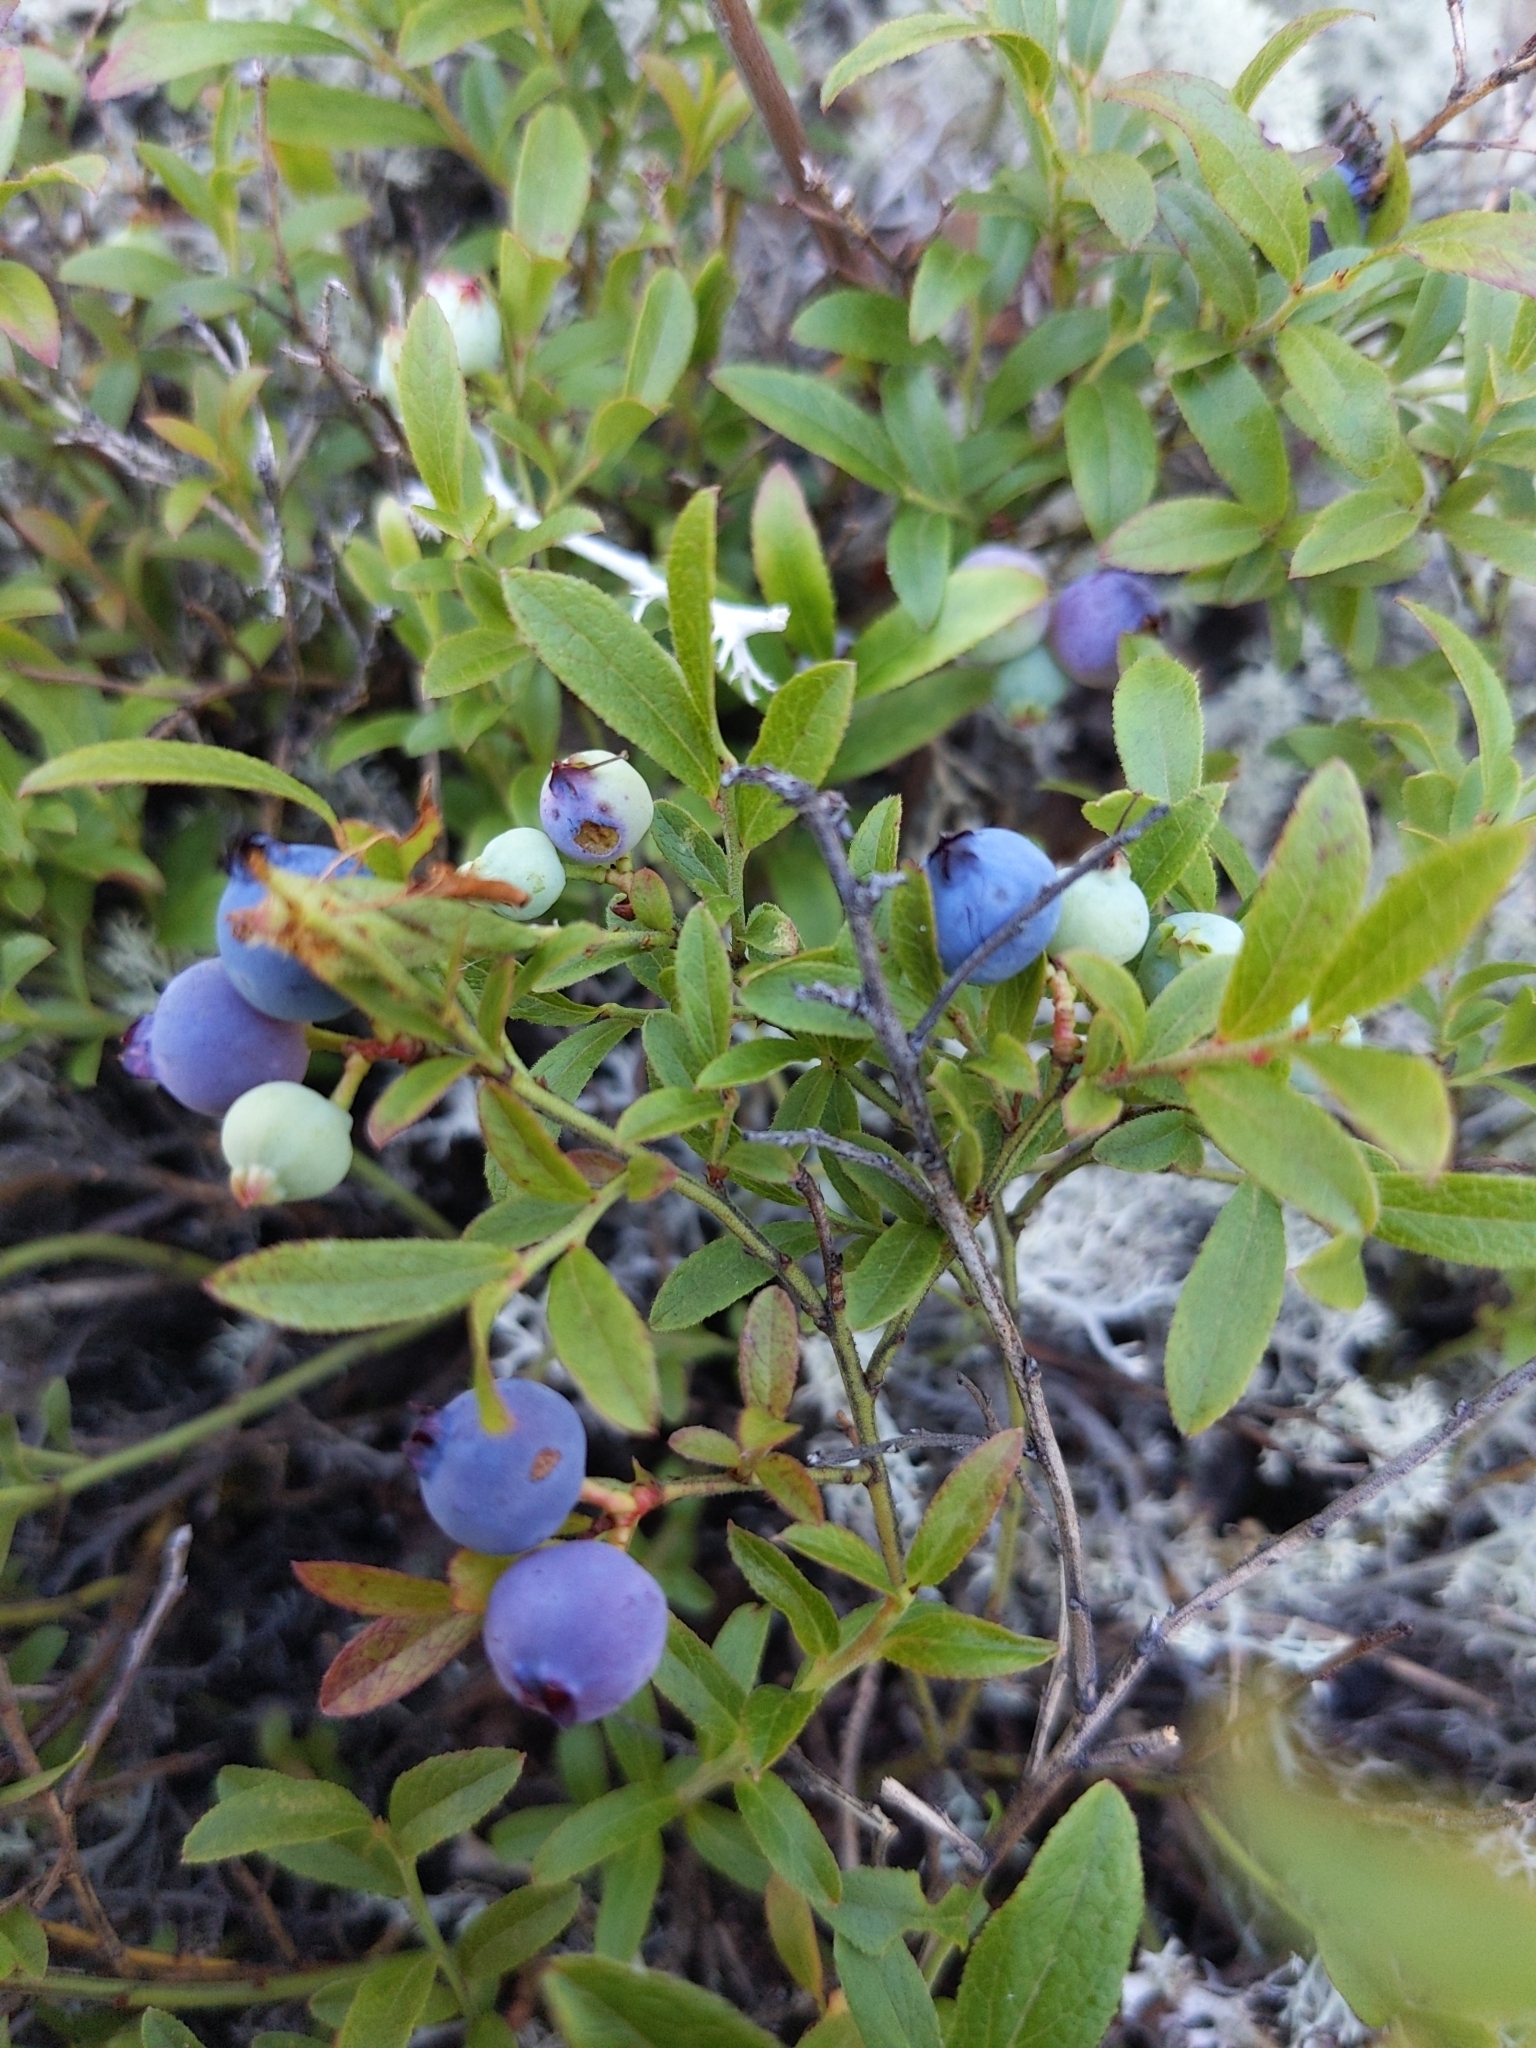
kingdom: Plantae
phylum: Tracheophyta
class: Magnoliopsida
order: Ericales
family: Ericaceae
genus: Vaccinium
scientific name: Vaccinium boreale
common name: Northern blueberry
